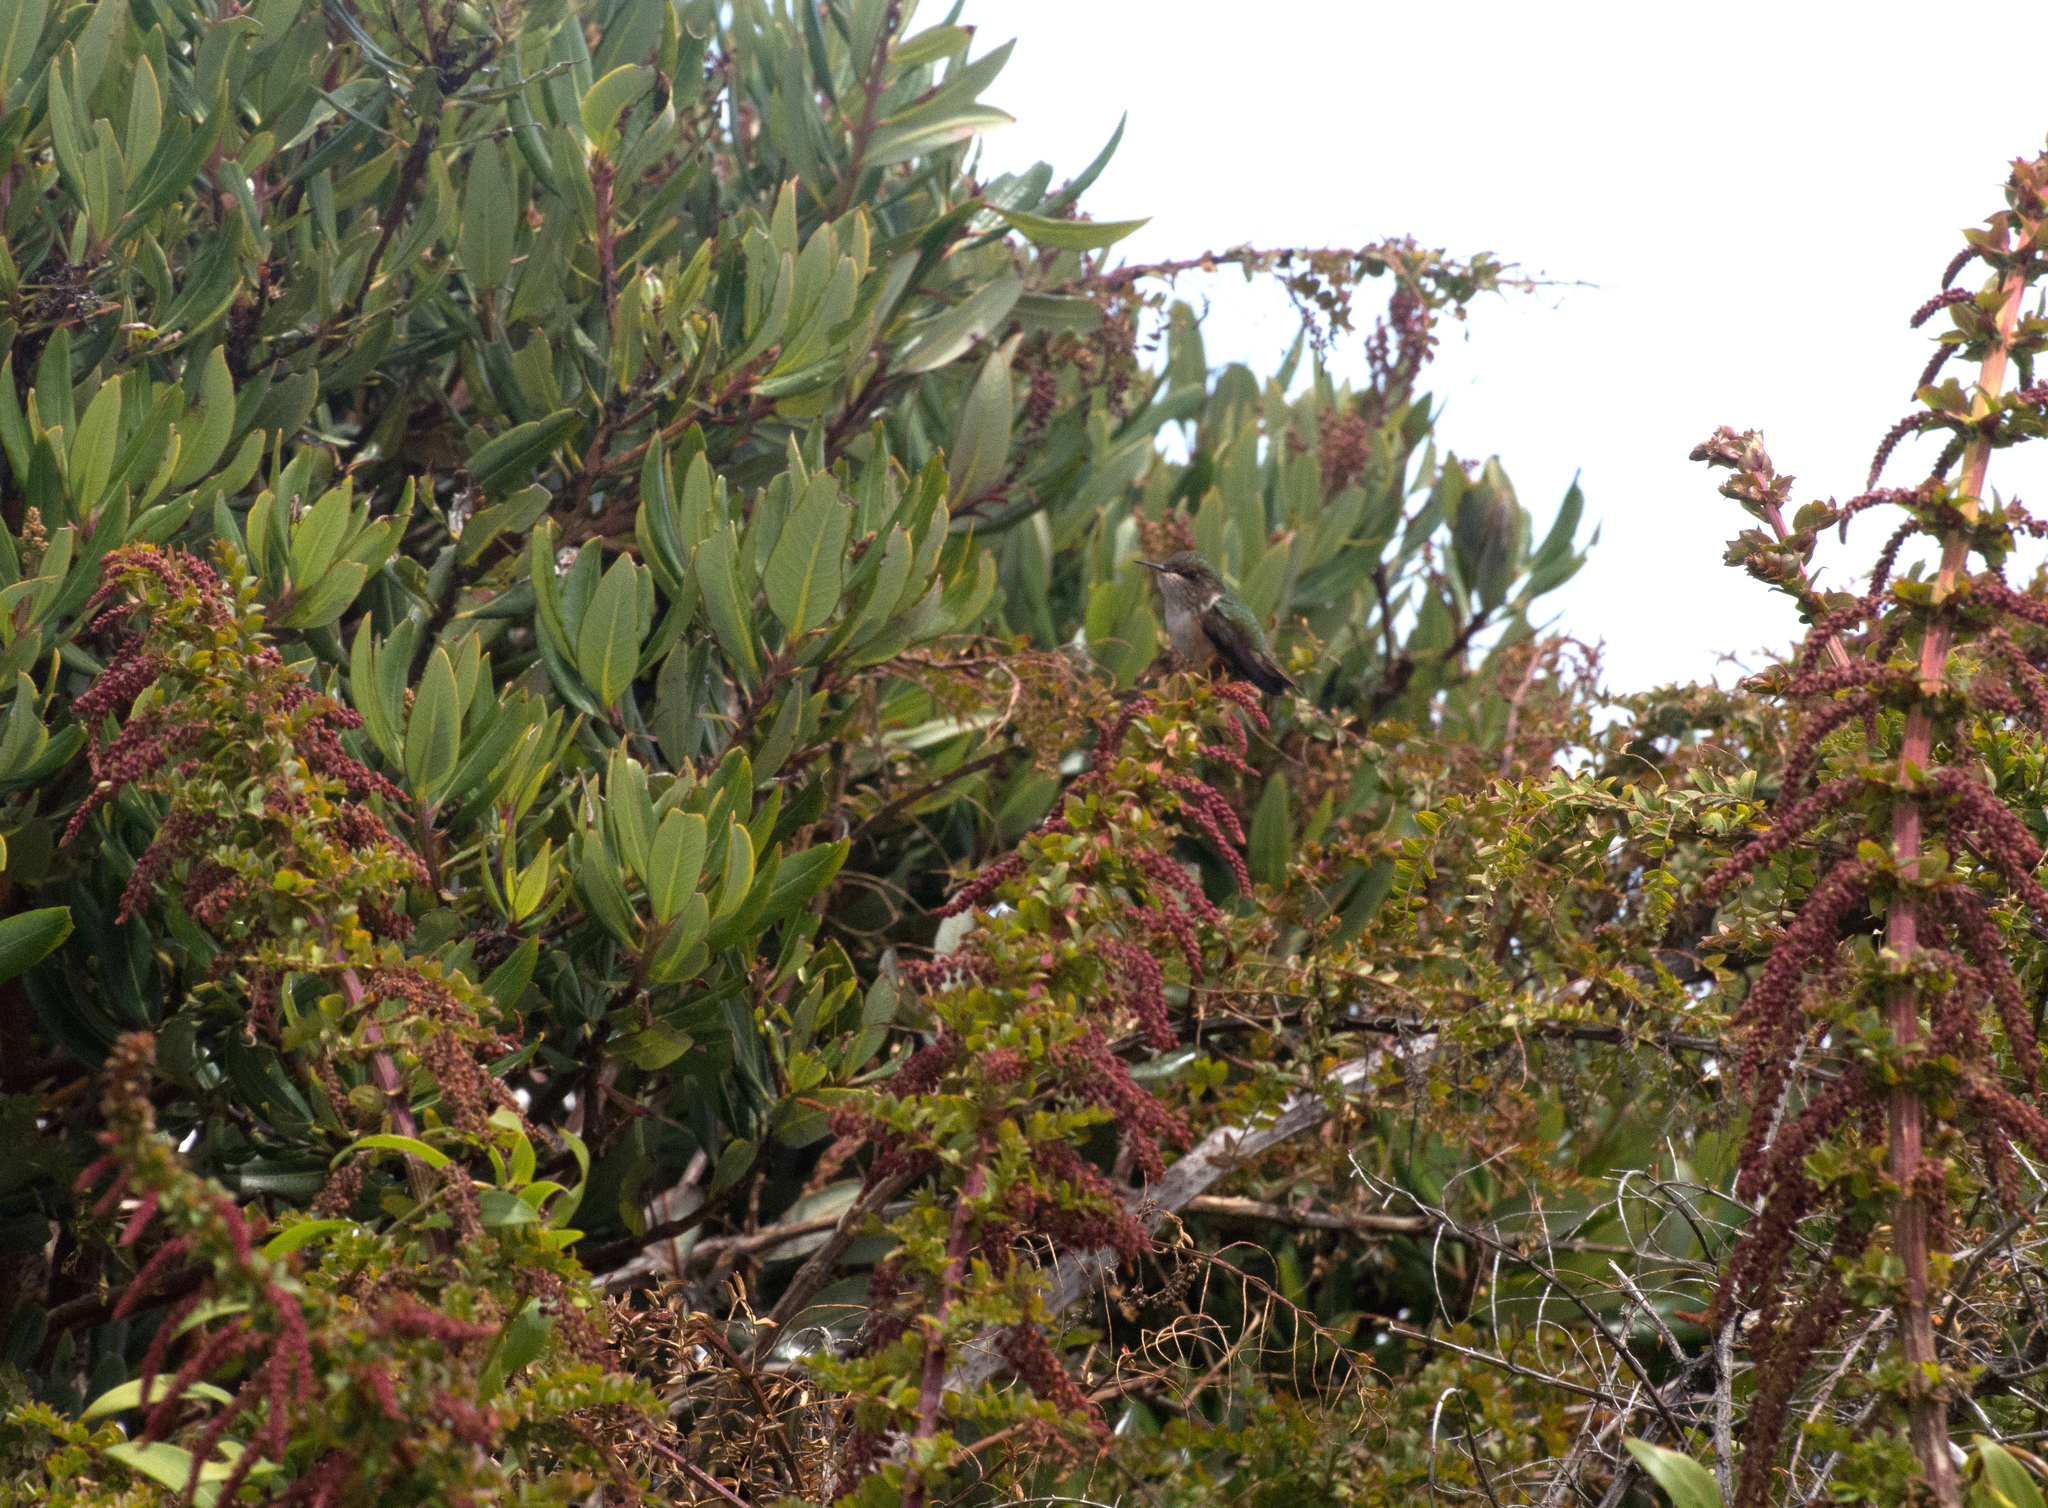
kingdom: Plantae
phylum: Tracheophyta
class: Magnoliopsida
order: Cucurbitales
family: Coriariaceae
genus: Coriaria
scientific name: Coriaria ruscifolia
